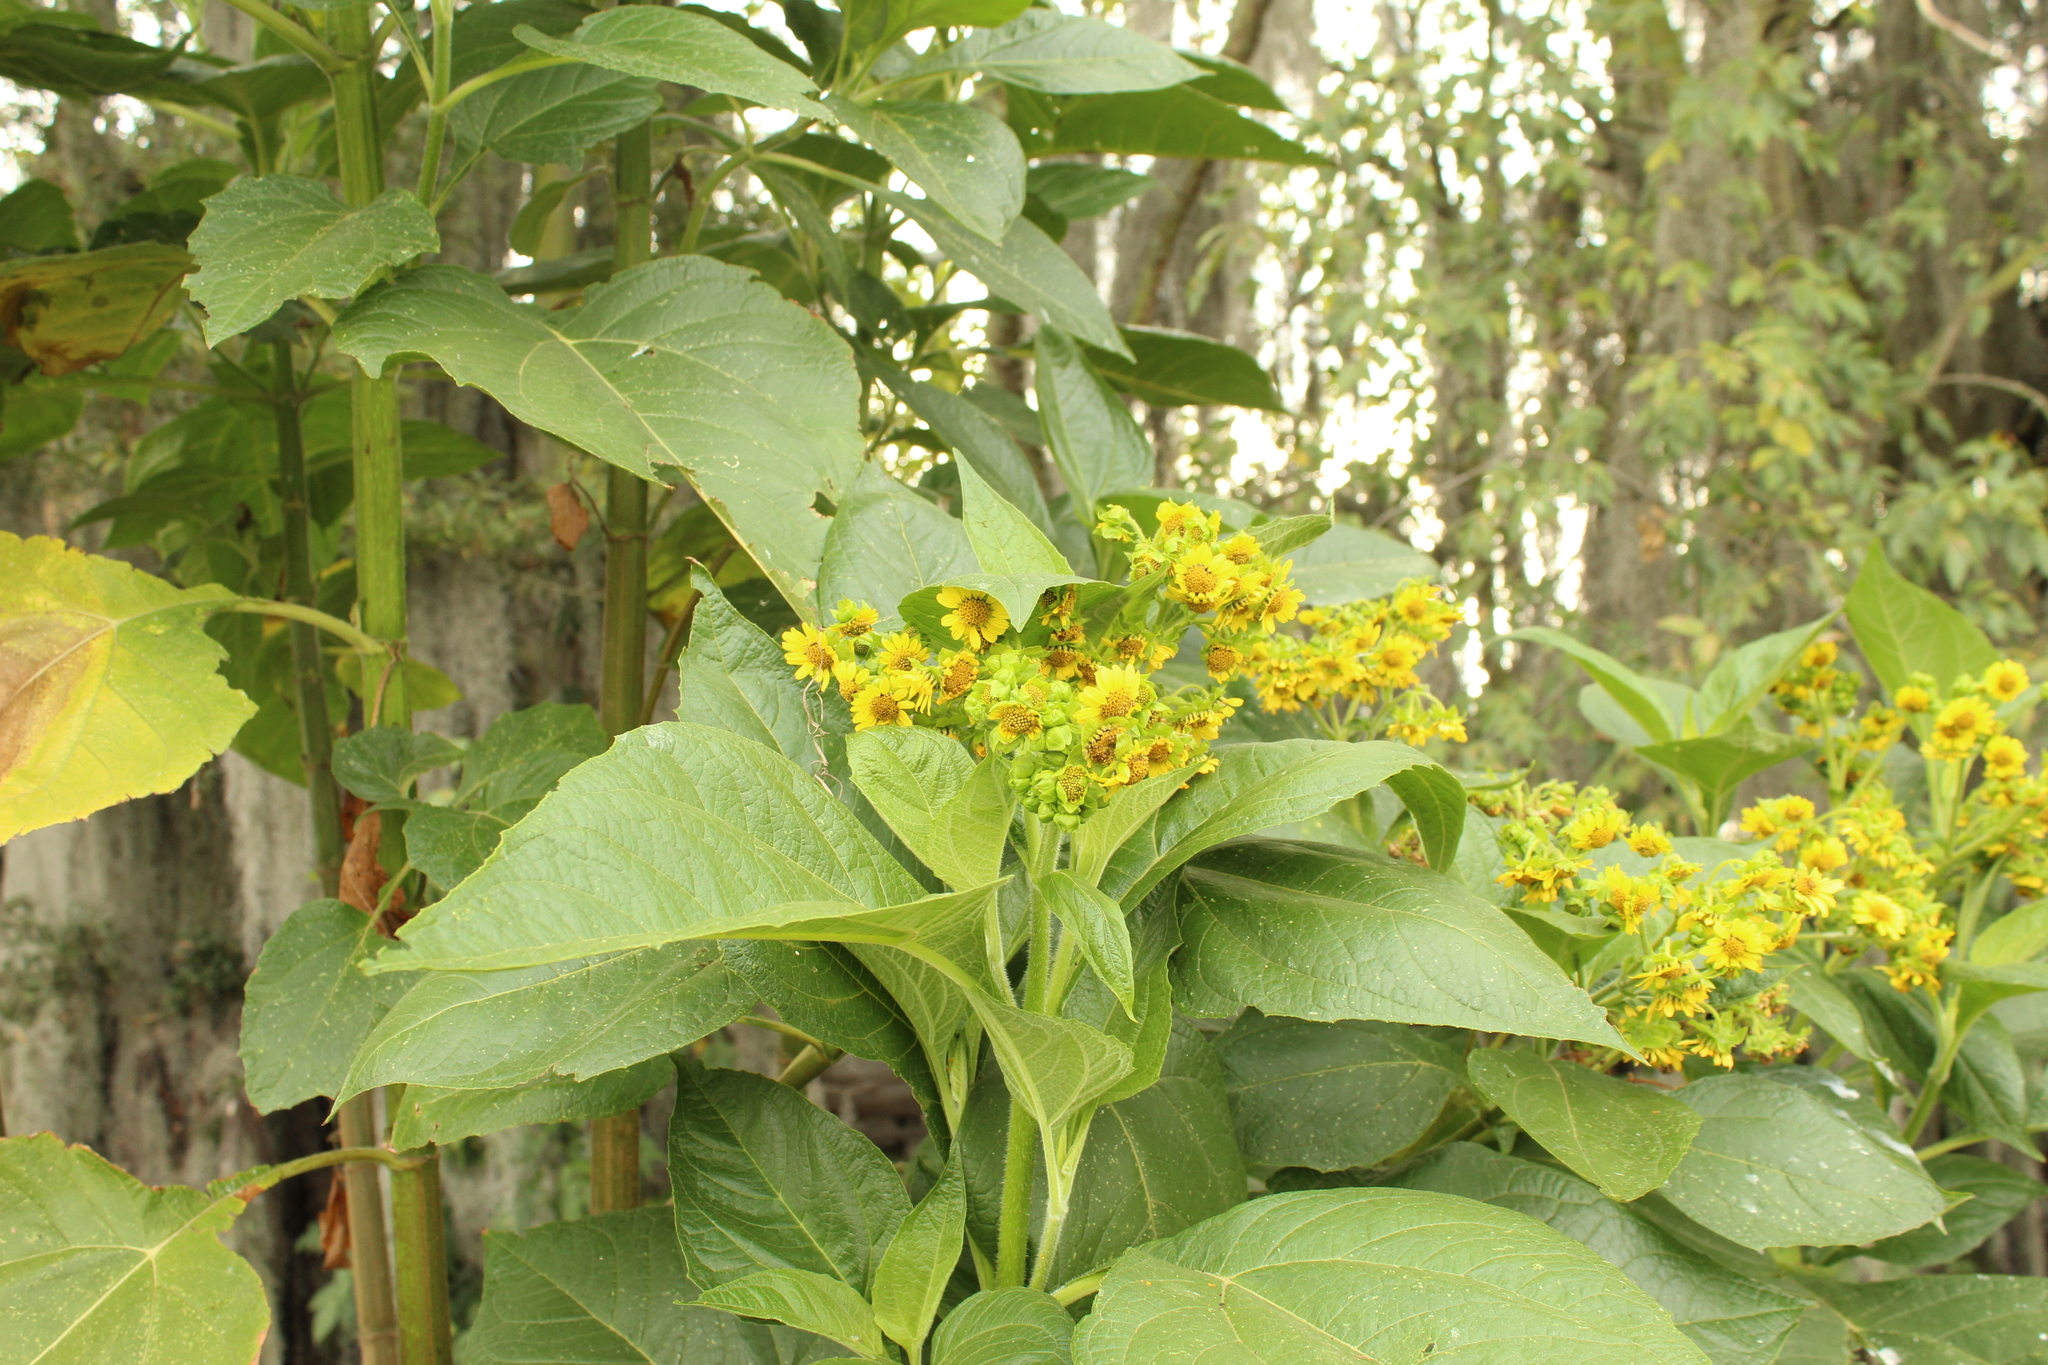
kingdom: Plantae
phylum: Tracheophyta
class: Magnoliopsida
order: Asterales
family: Asteraceae
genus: Smallanthus
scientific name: Smallanthus pyramidalis
